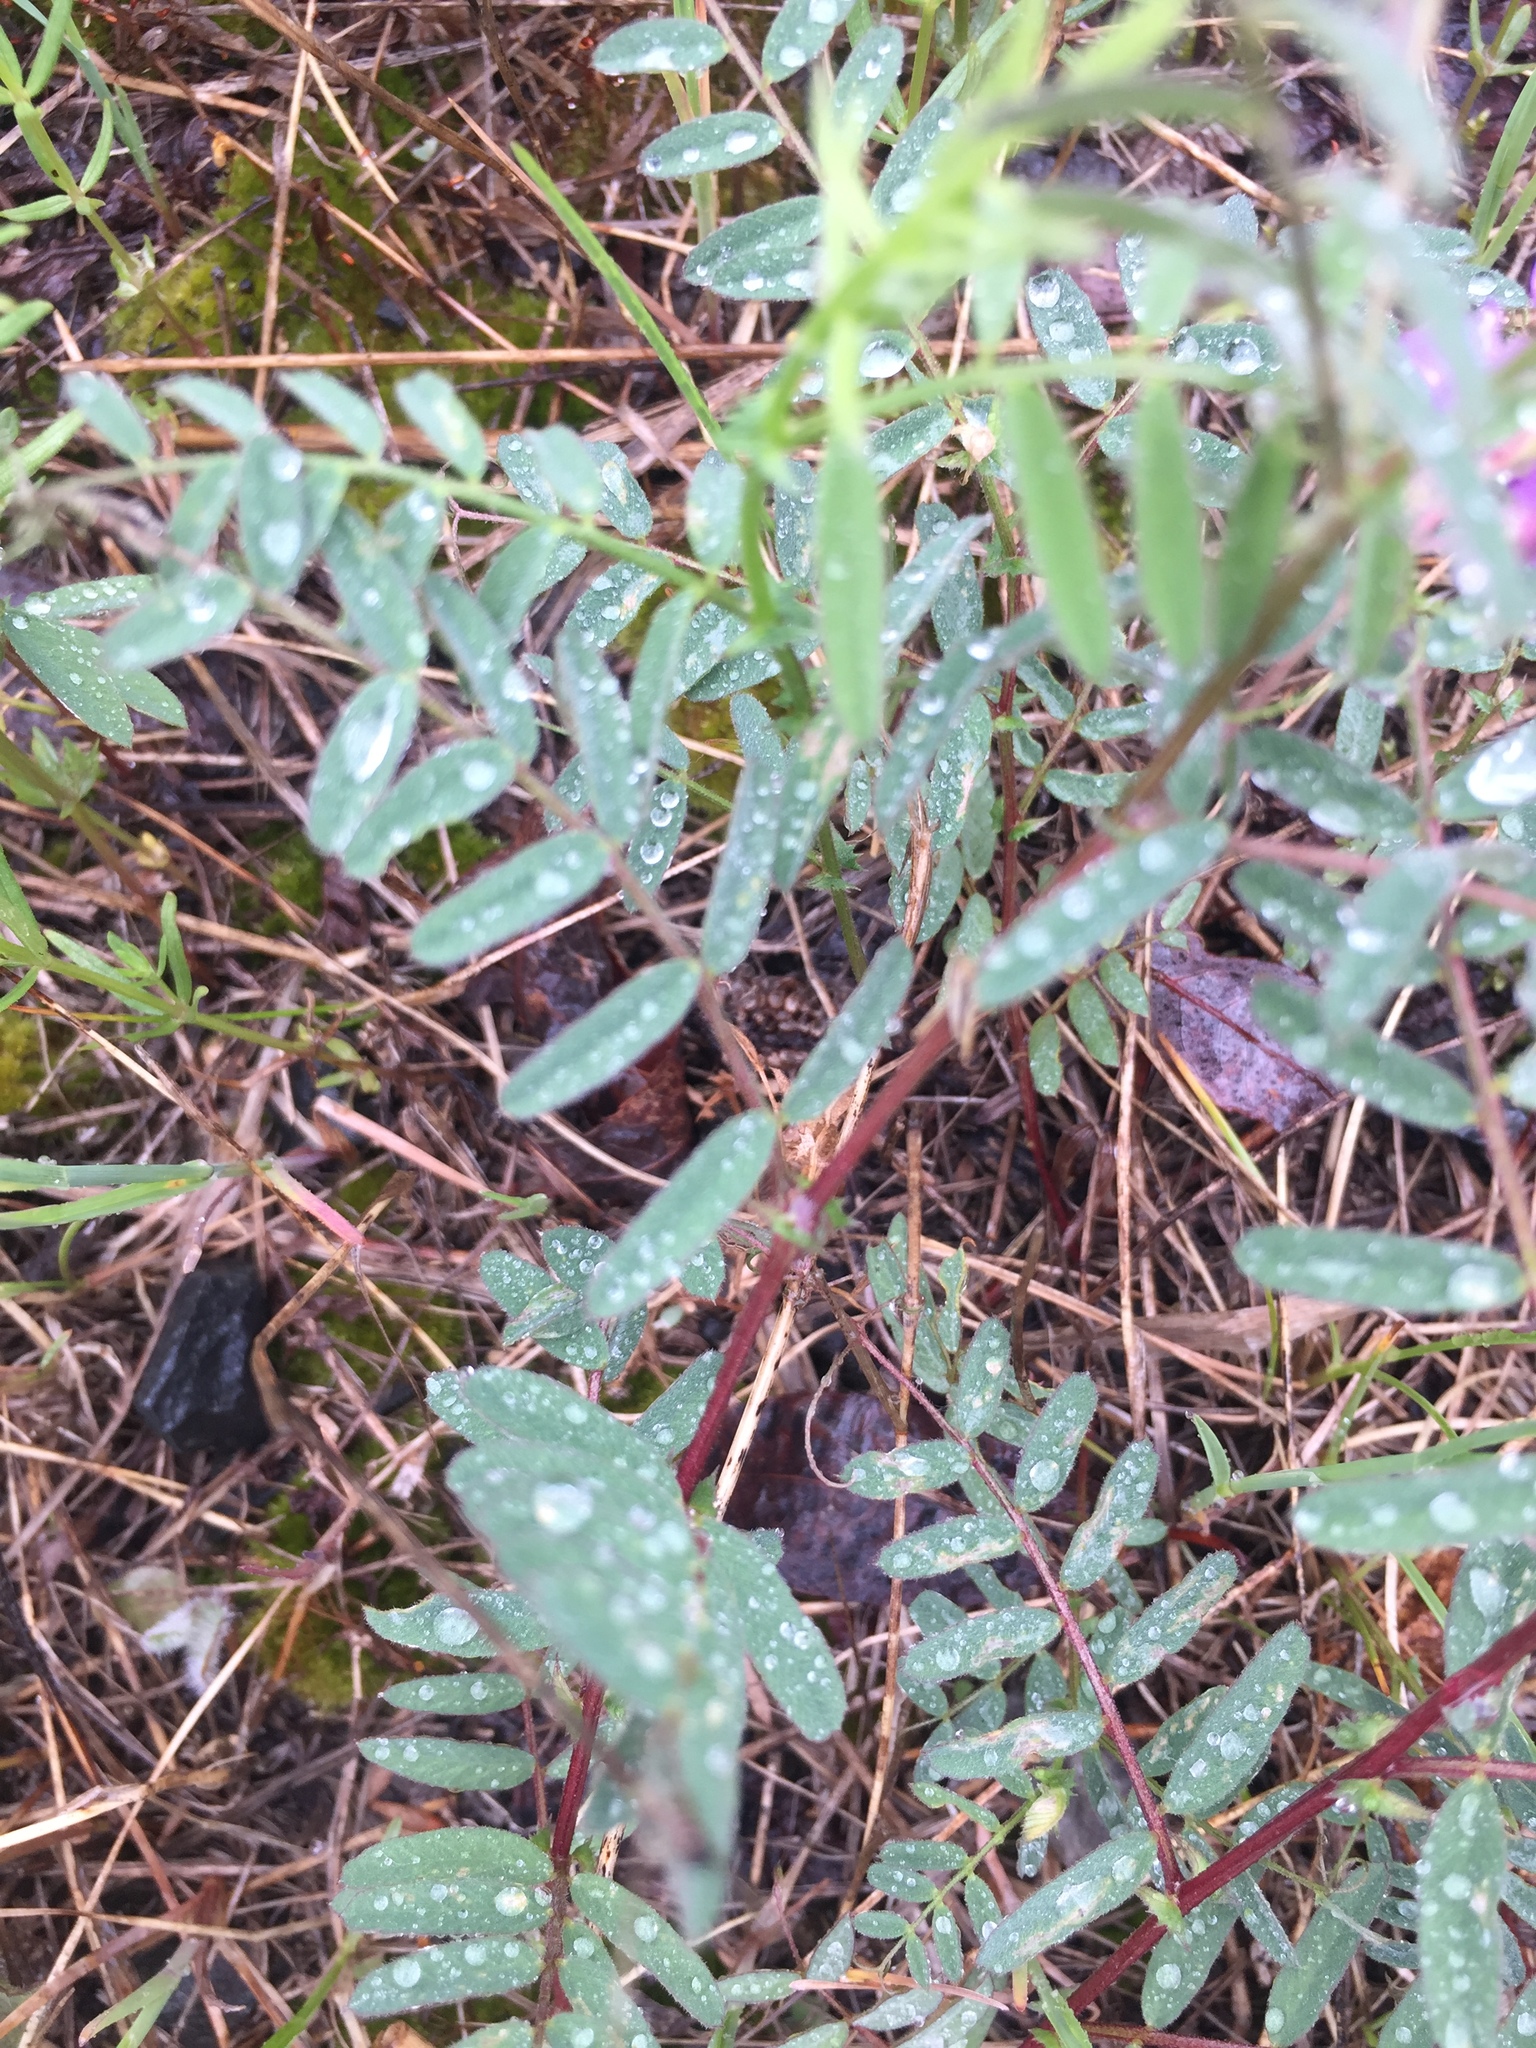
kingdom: Plantae
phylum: Tracheophyta
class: Magnoliopsida
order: Fabales
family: Fabaceae
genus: Vicia
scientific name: Vicia americana
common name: American vetch
